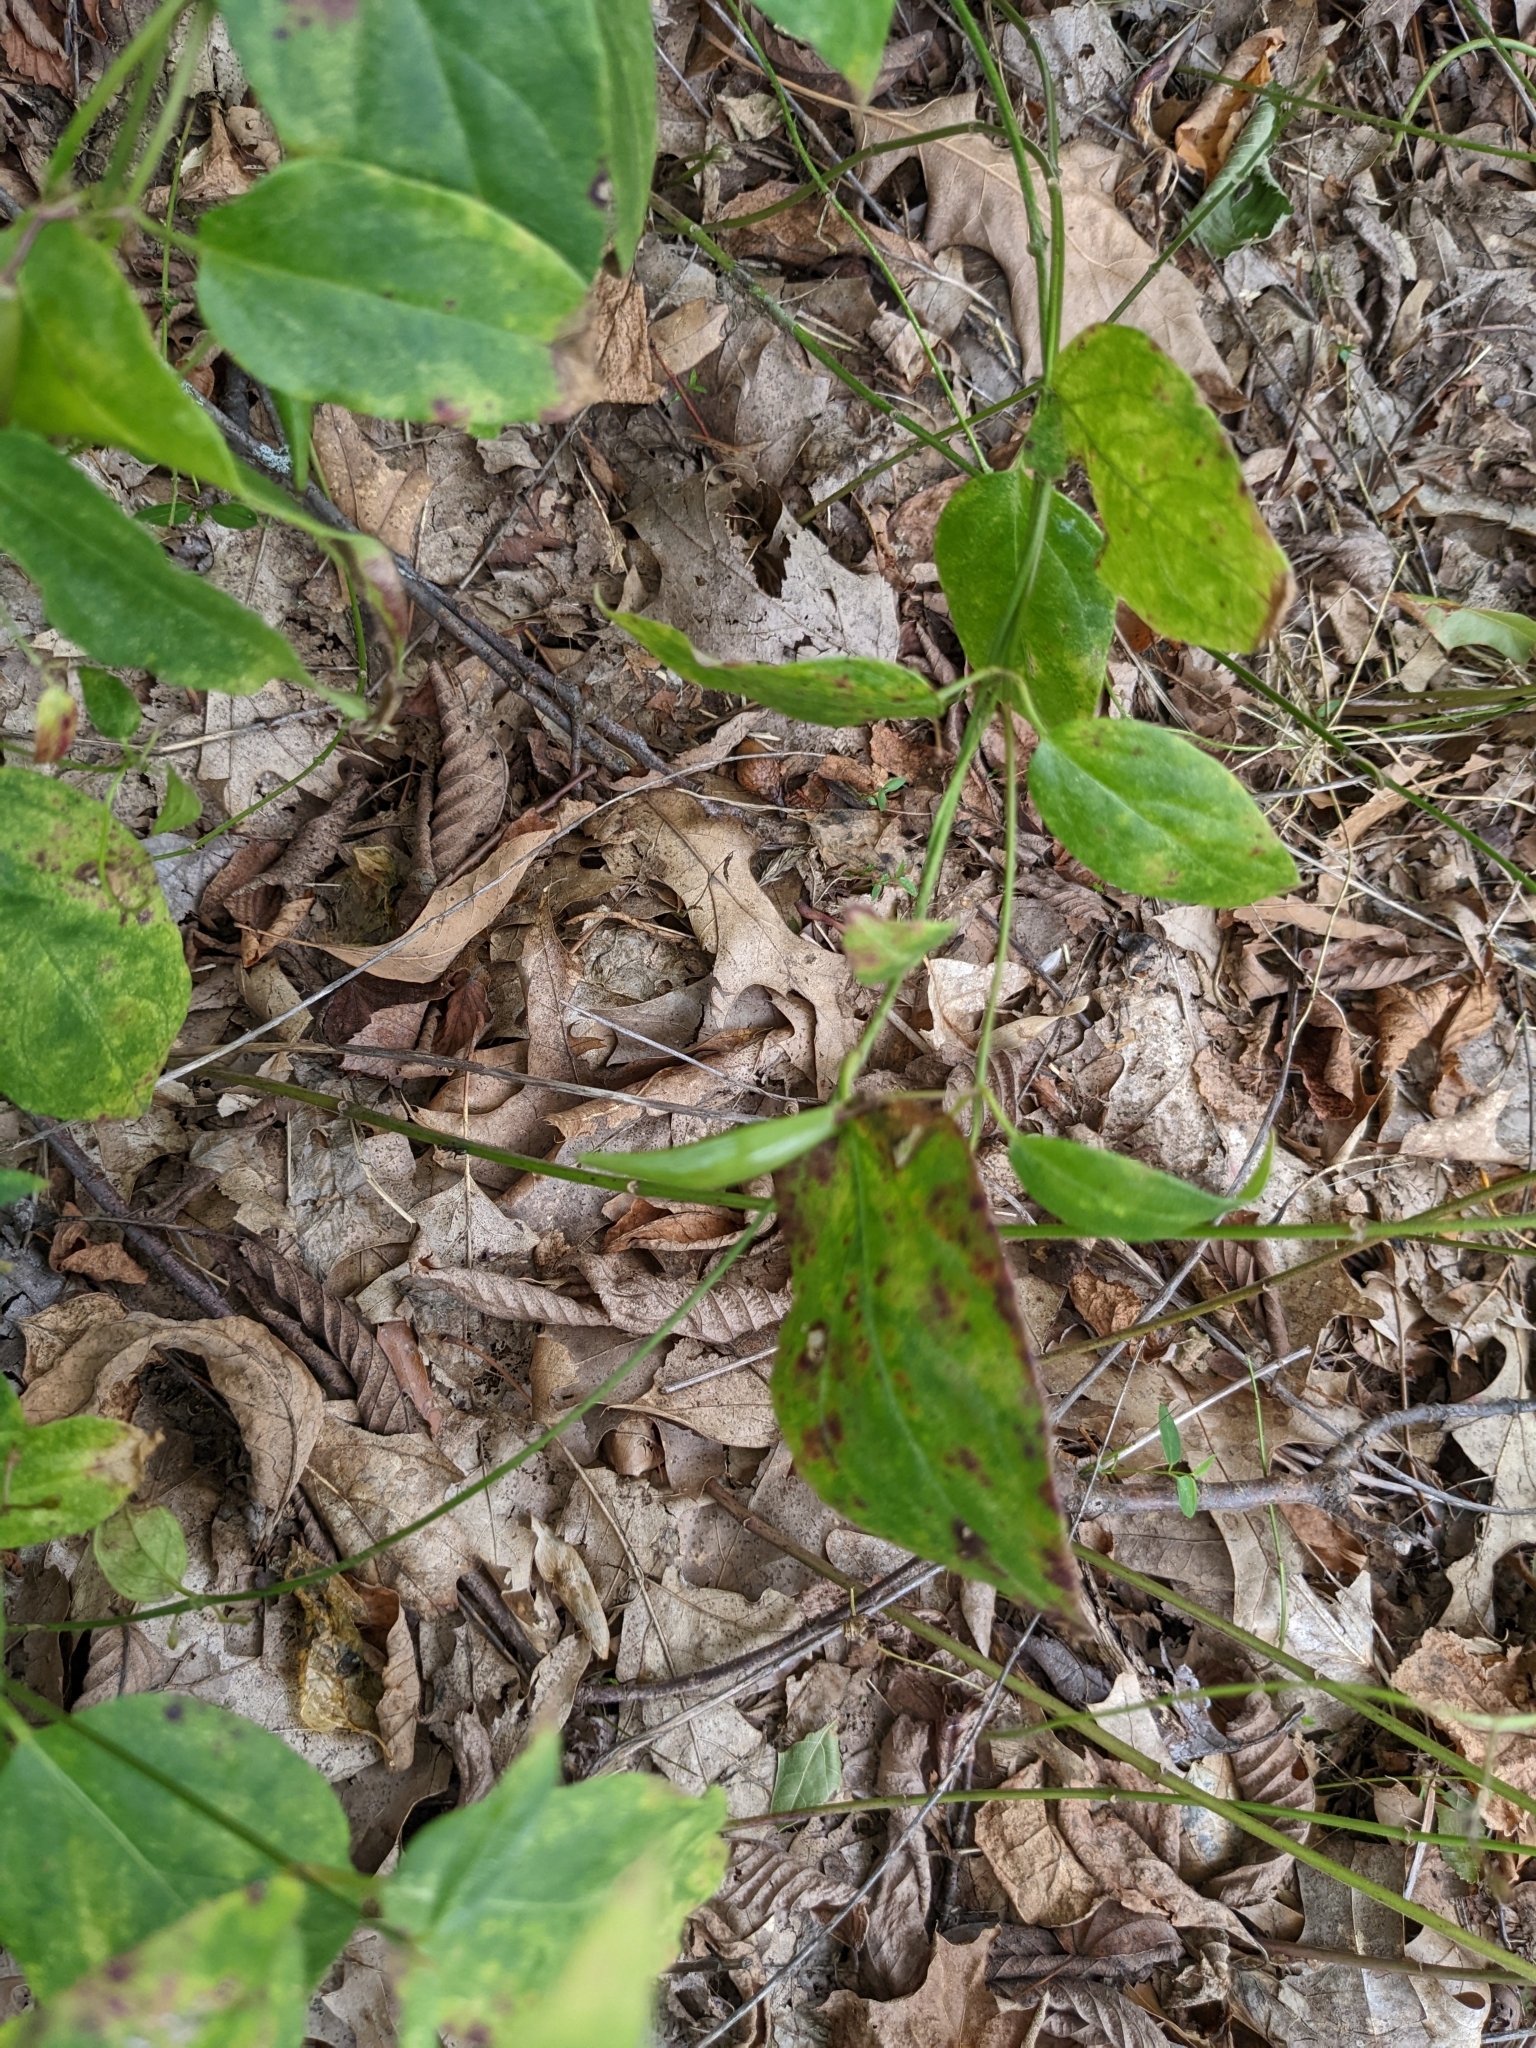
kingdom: Plantae
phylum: Tracheophyta
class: Magnoliopsida
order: Gentianales
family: Apocynaceae
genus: Vincetoxicum
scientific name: Vincetoxicum nigrum
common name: Black swallow-wort
